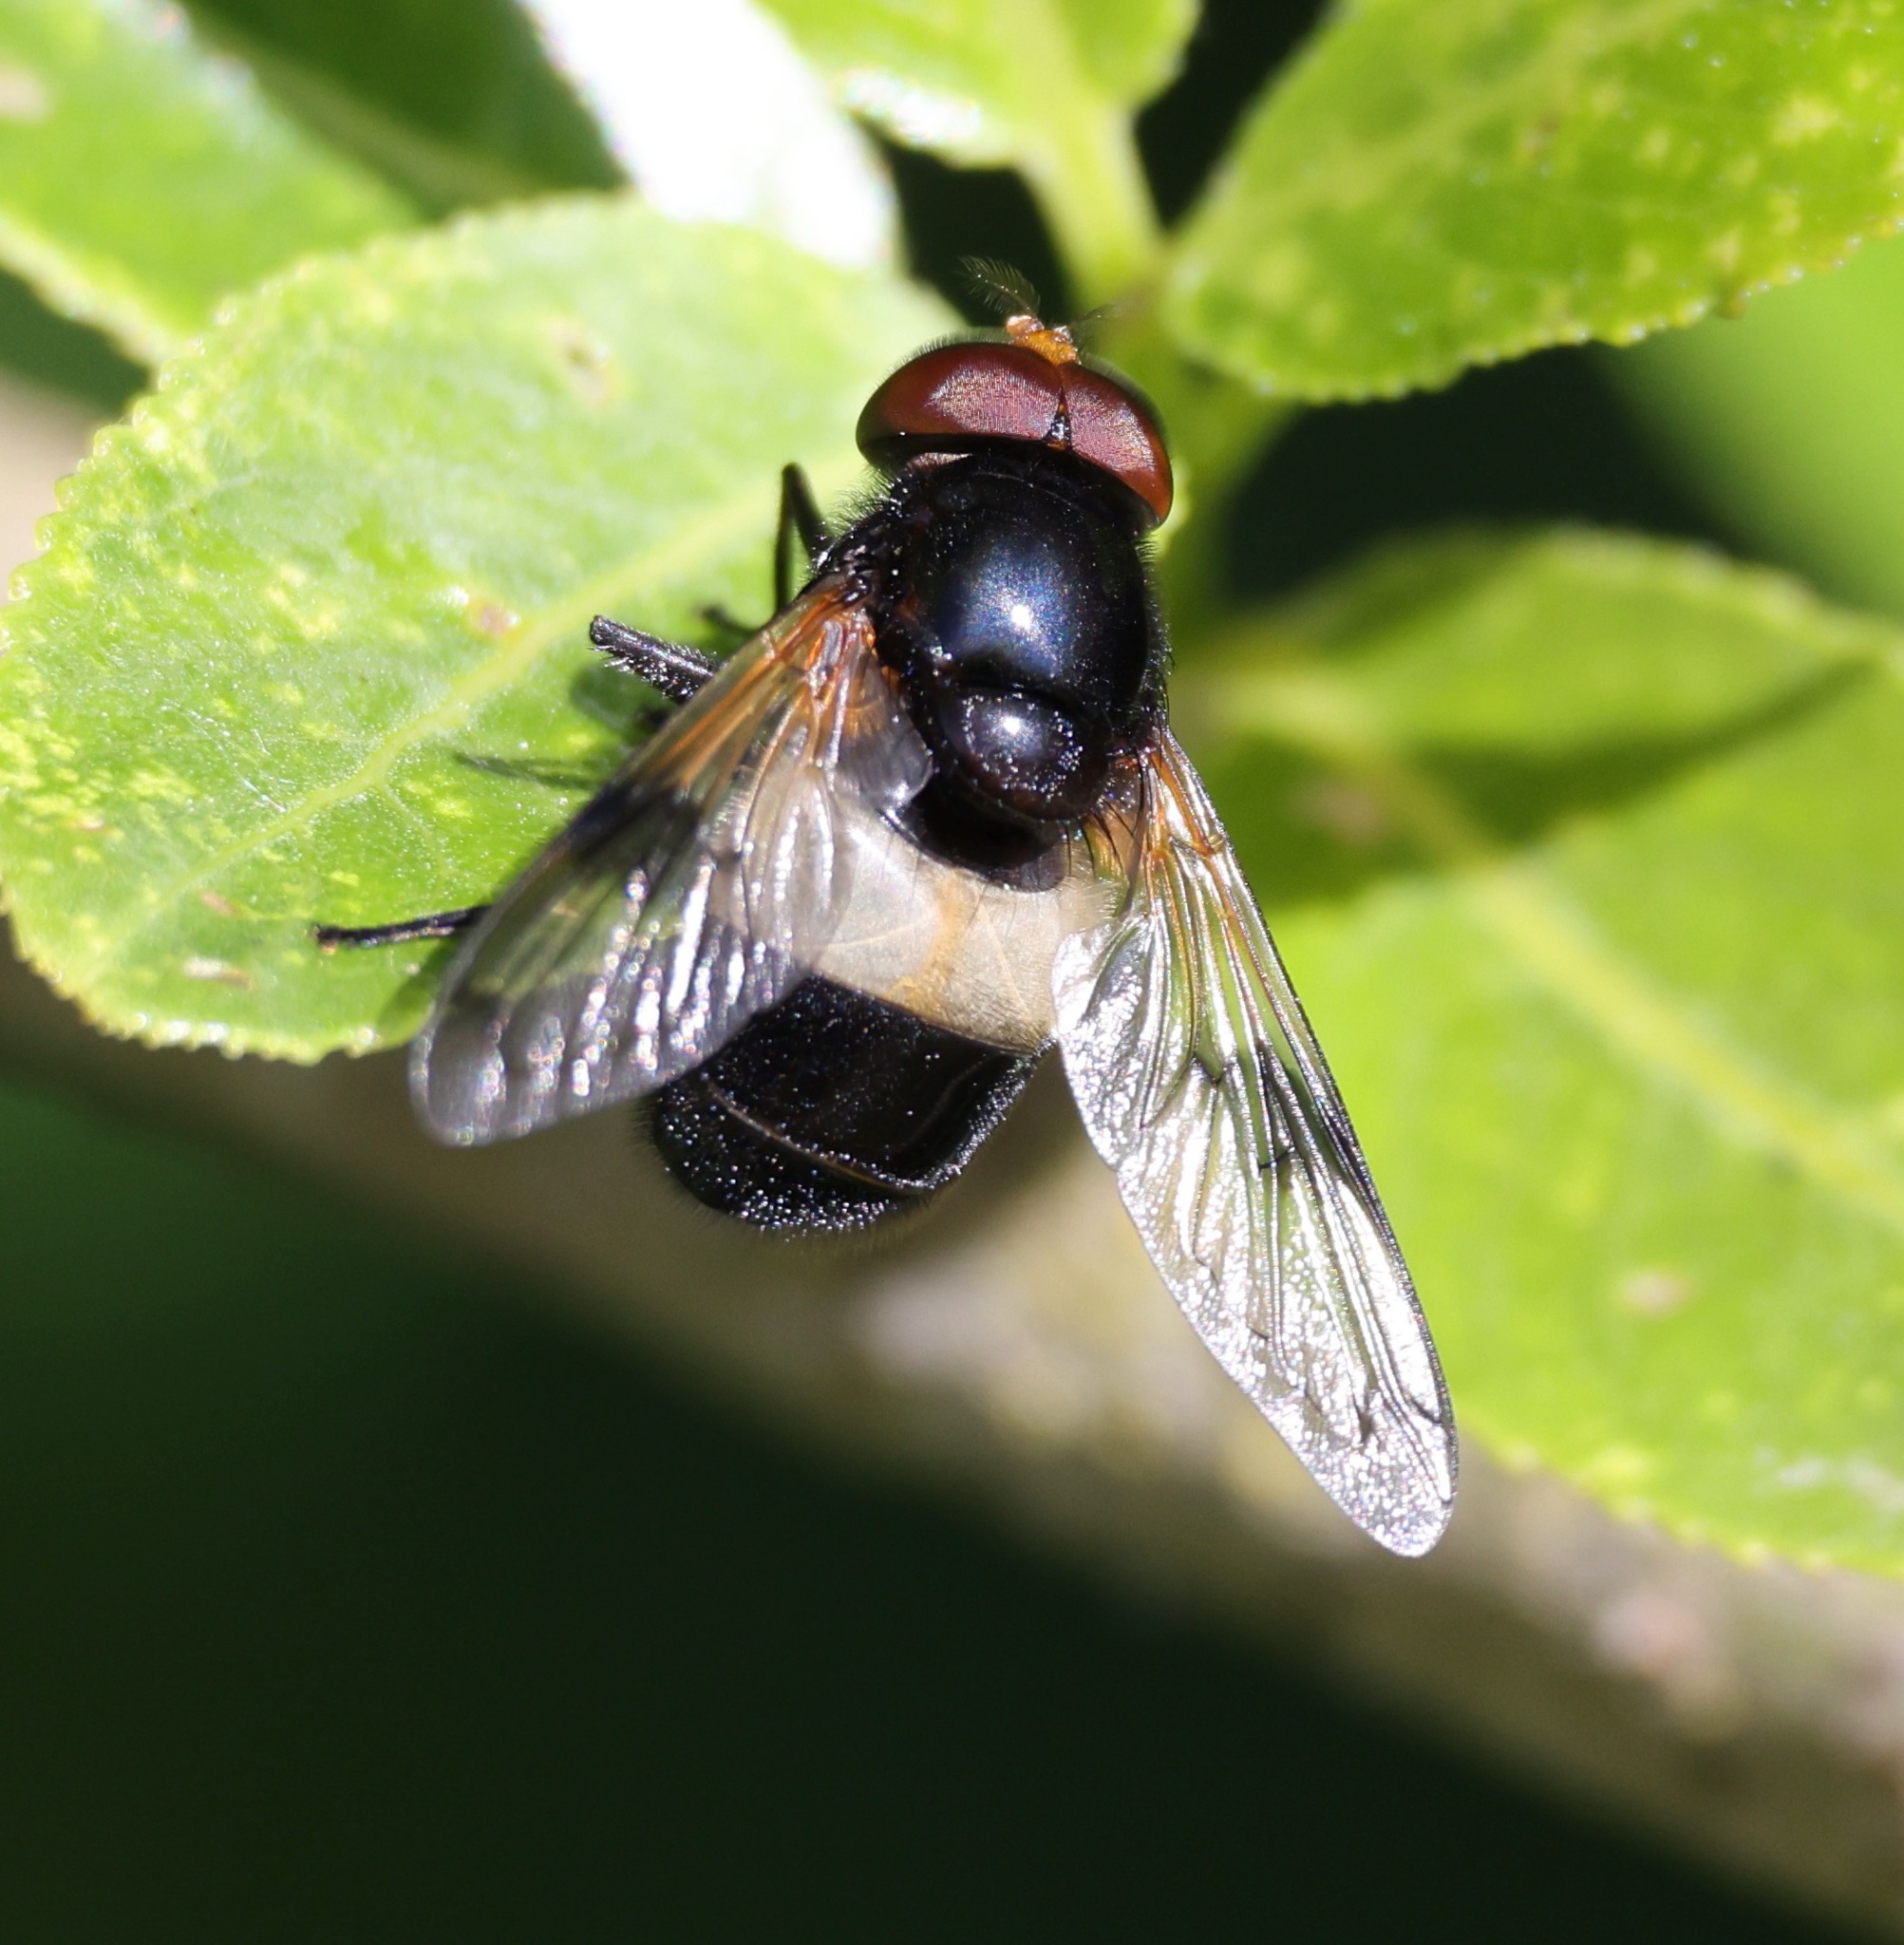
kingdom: Animalia
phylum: Arthropoda
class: Insecta
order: Diptera
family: Syrphidae
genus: Volucella
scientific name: Volucella pellucens
